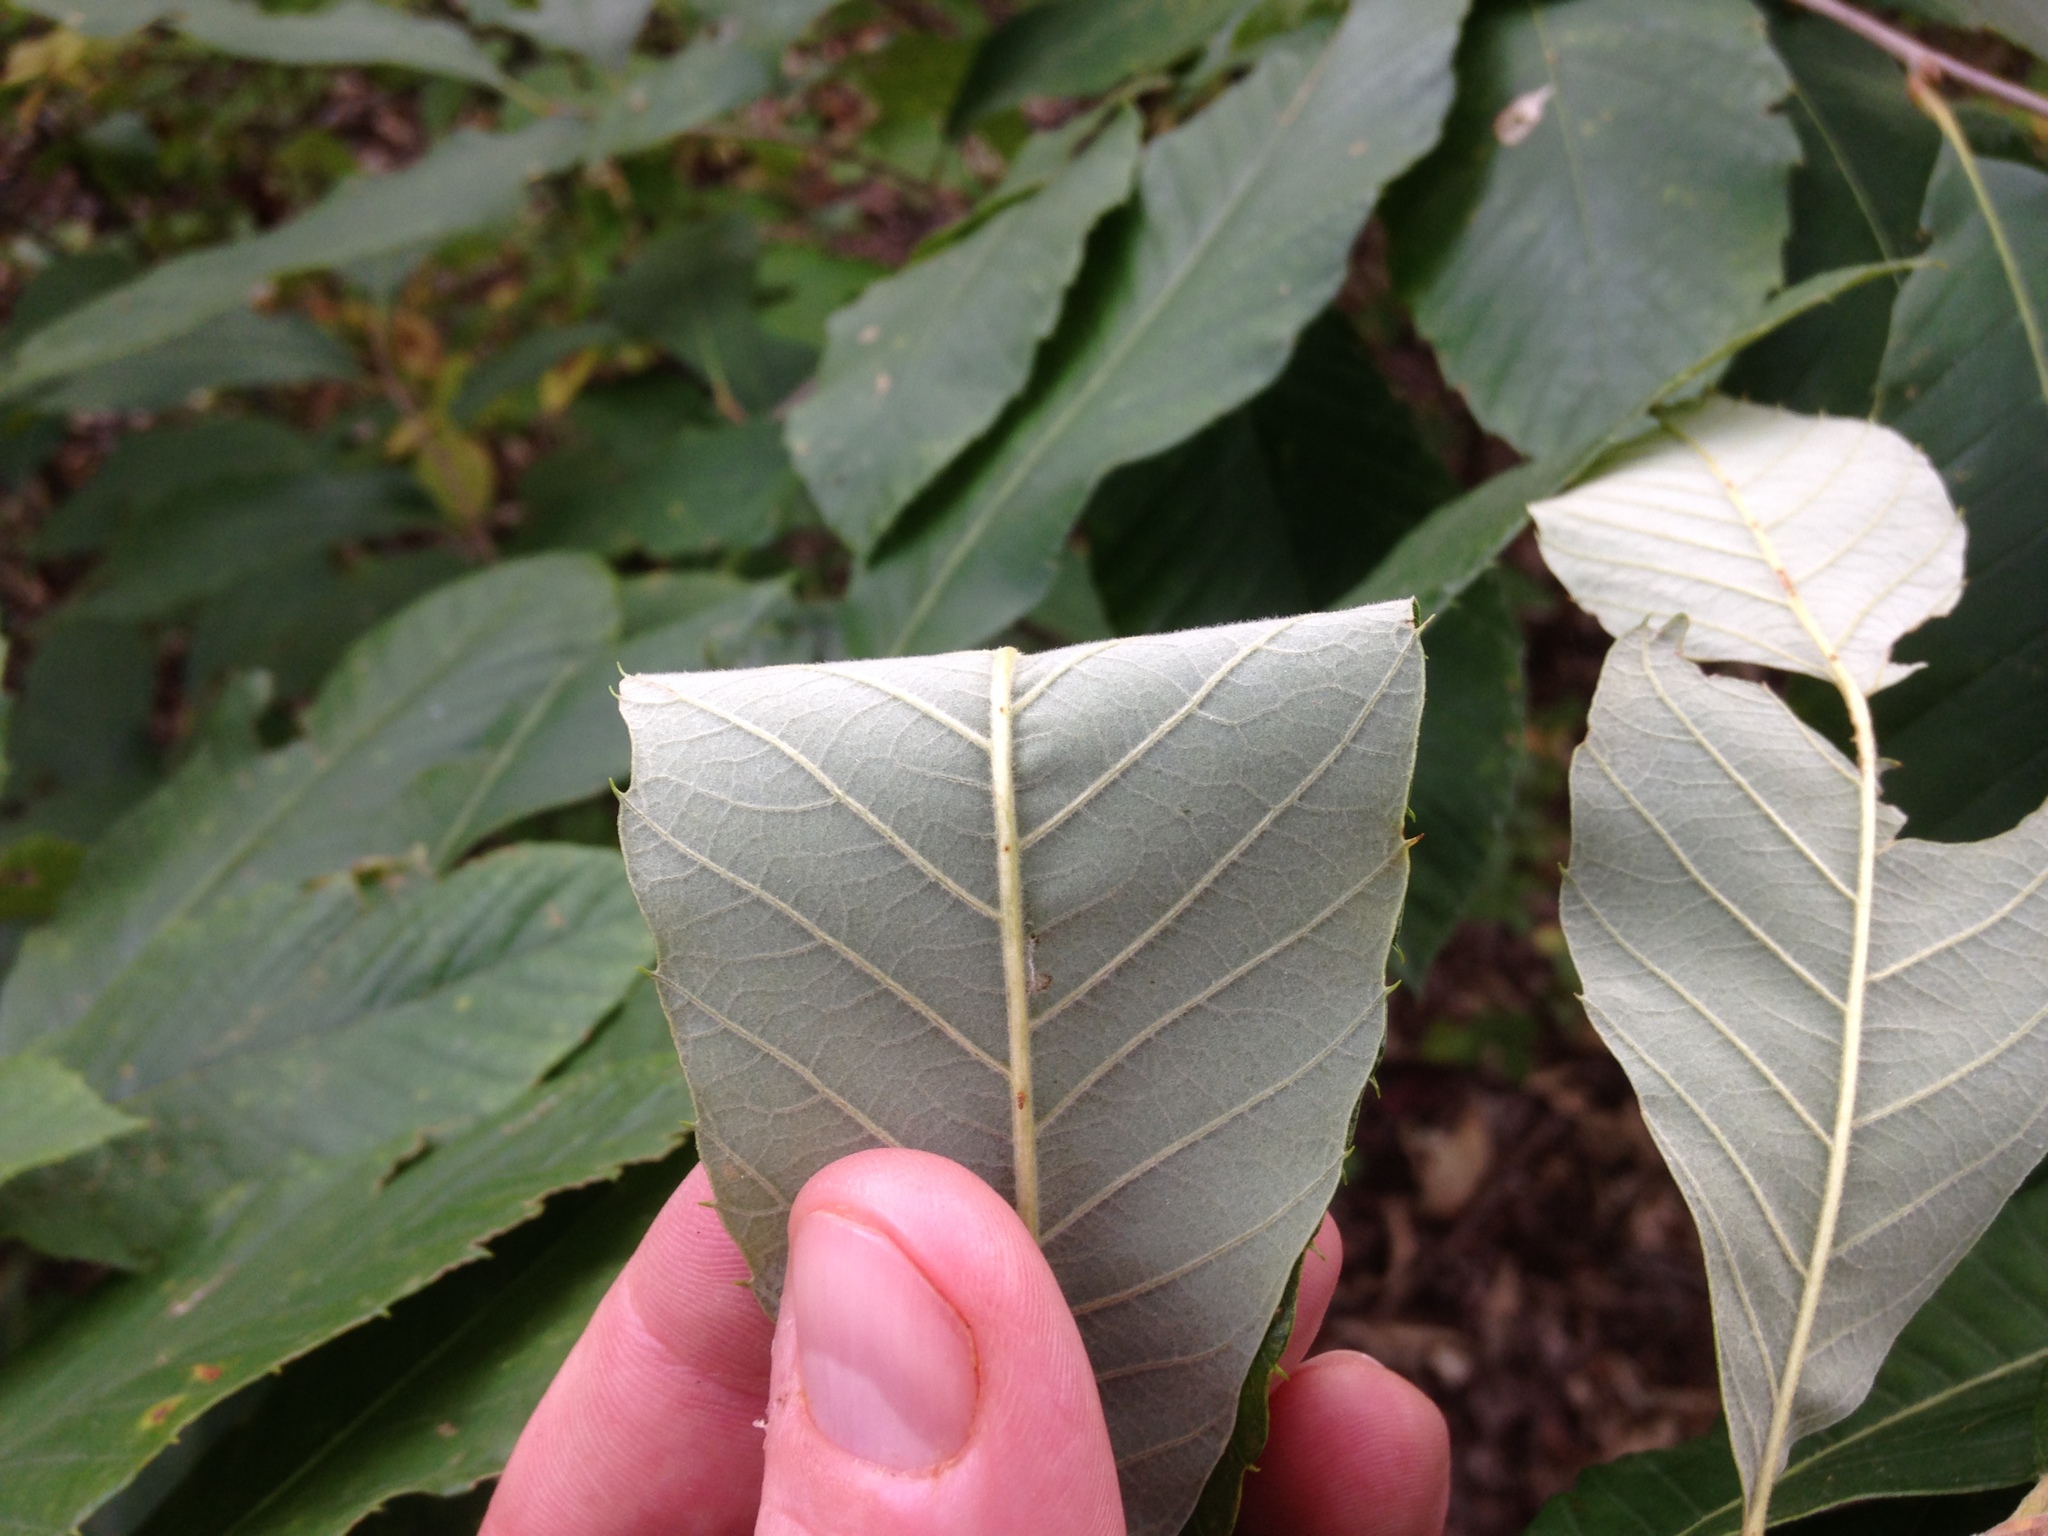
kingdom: Plantae
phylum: Tracheophyta
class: Magnoliopsida
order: Fagales
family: Fagaceae
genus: Castanea
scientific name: Castanea pumila
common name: Chinkapin
